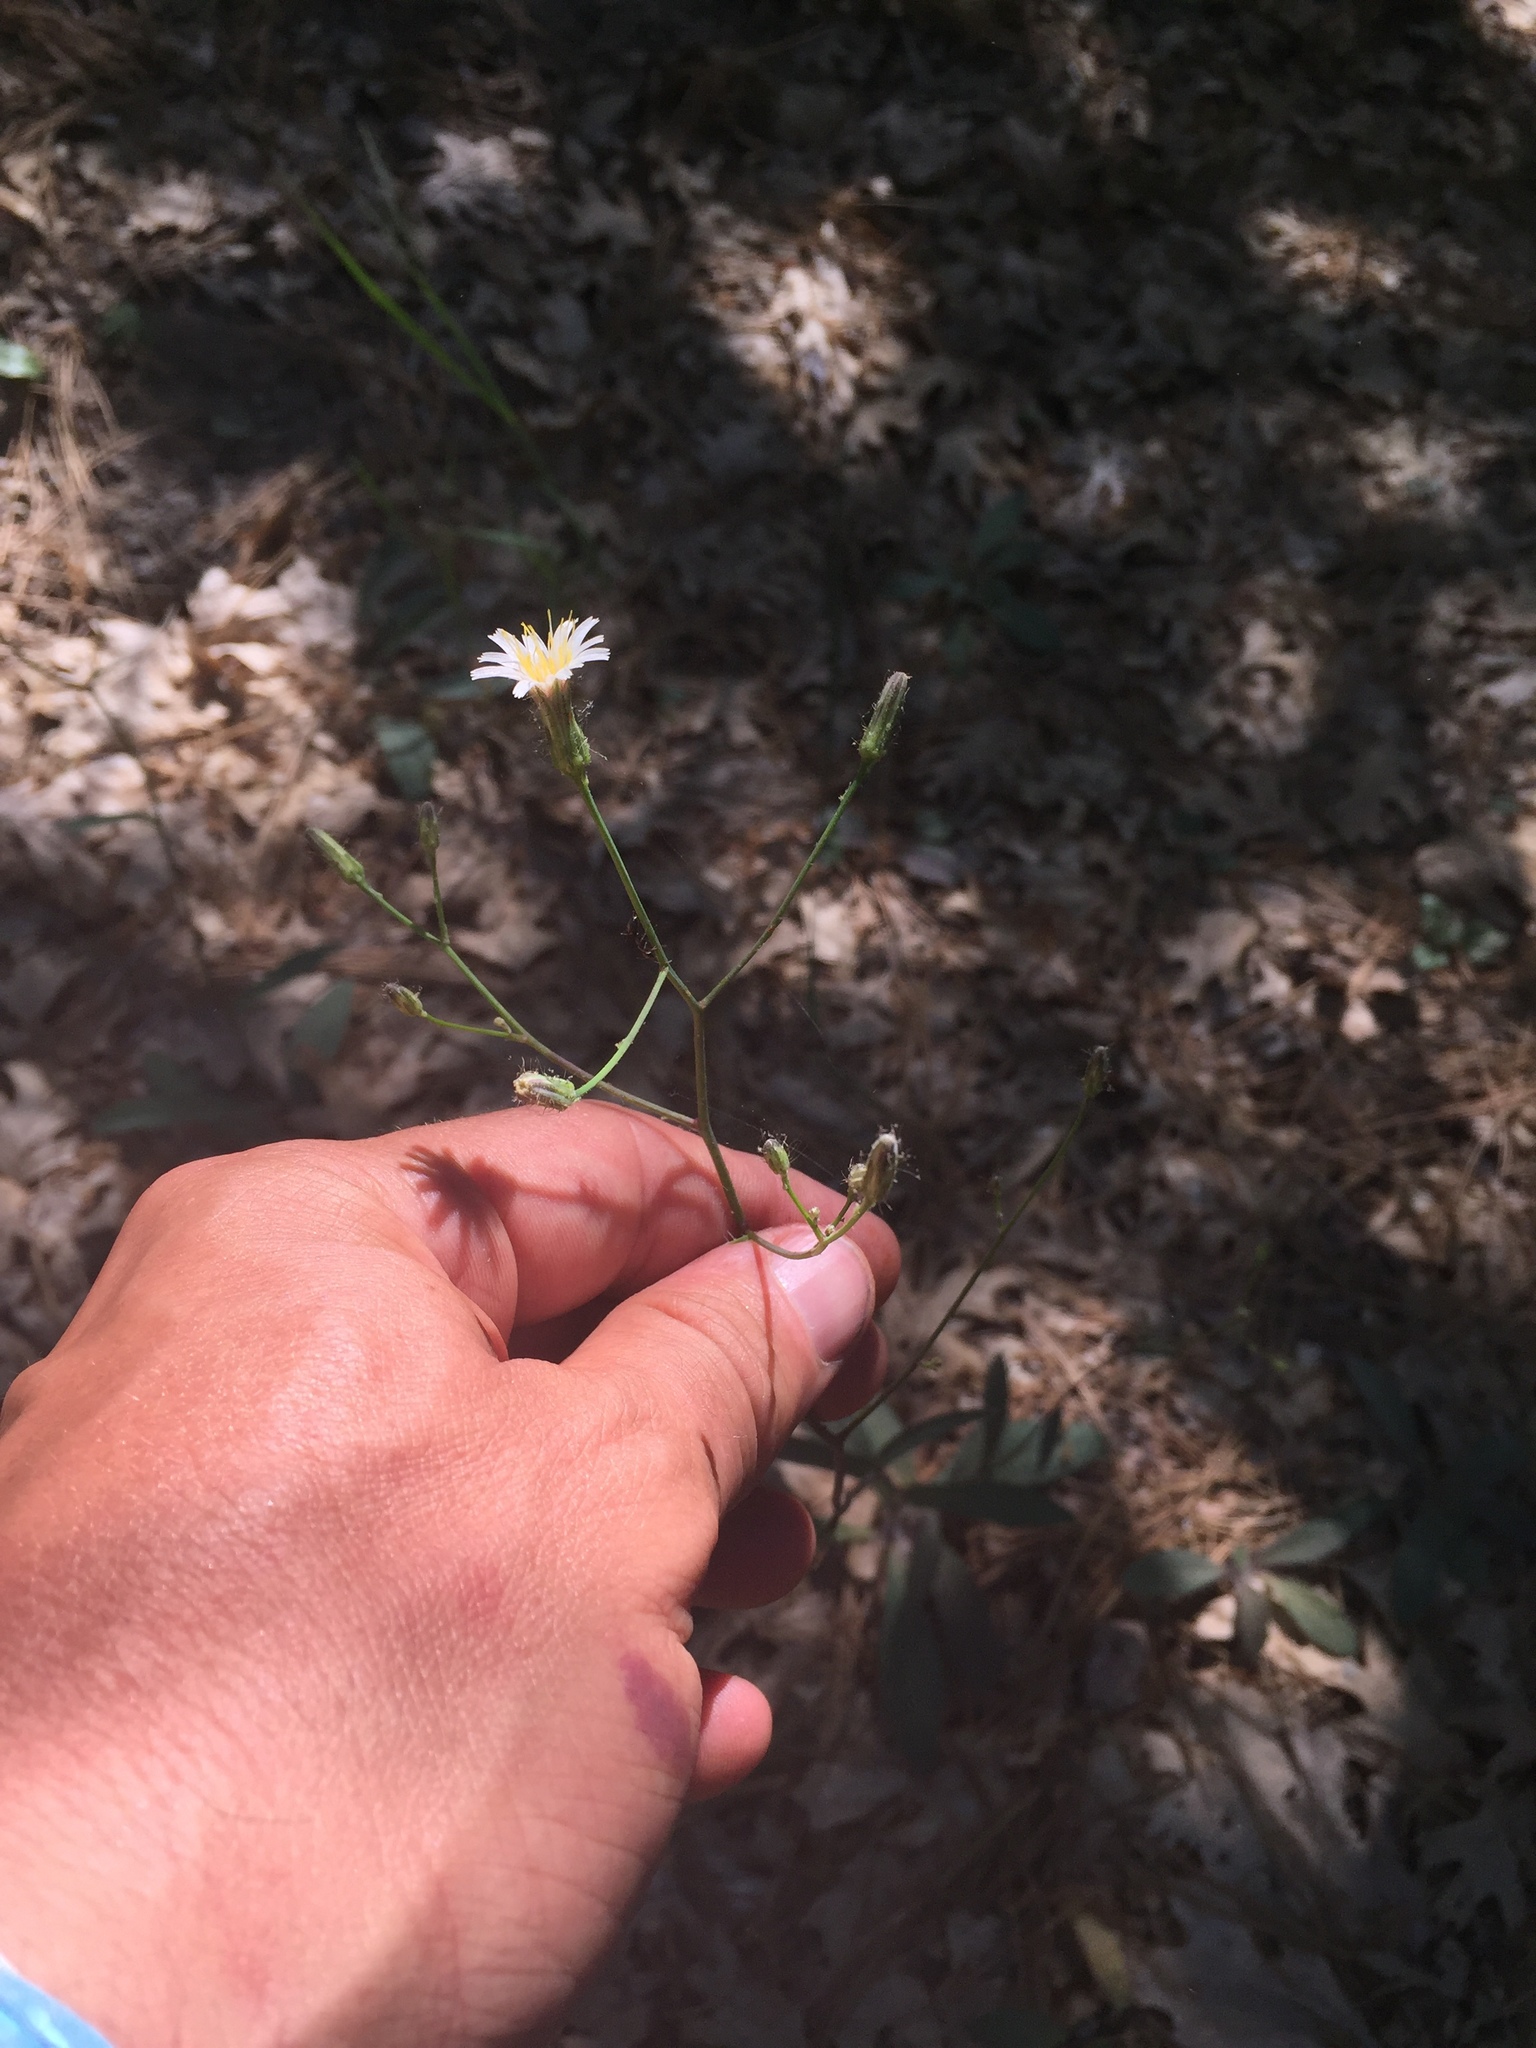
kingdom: Plantae
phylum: Tracheophyta
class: Magnoliopsida
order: Asterales
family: Asteraceae
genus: Hieracium
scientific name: Hieracium albiflorum
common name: White hawkweed
